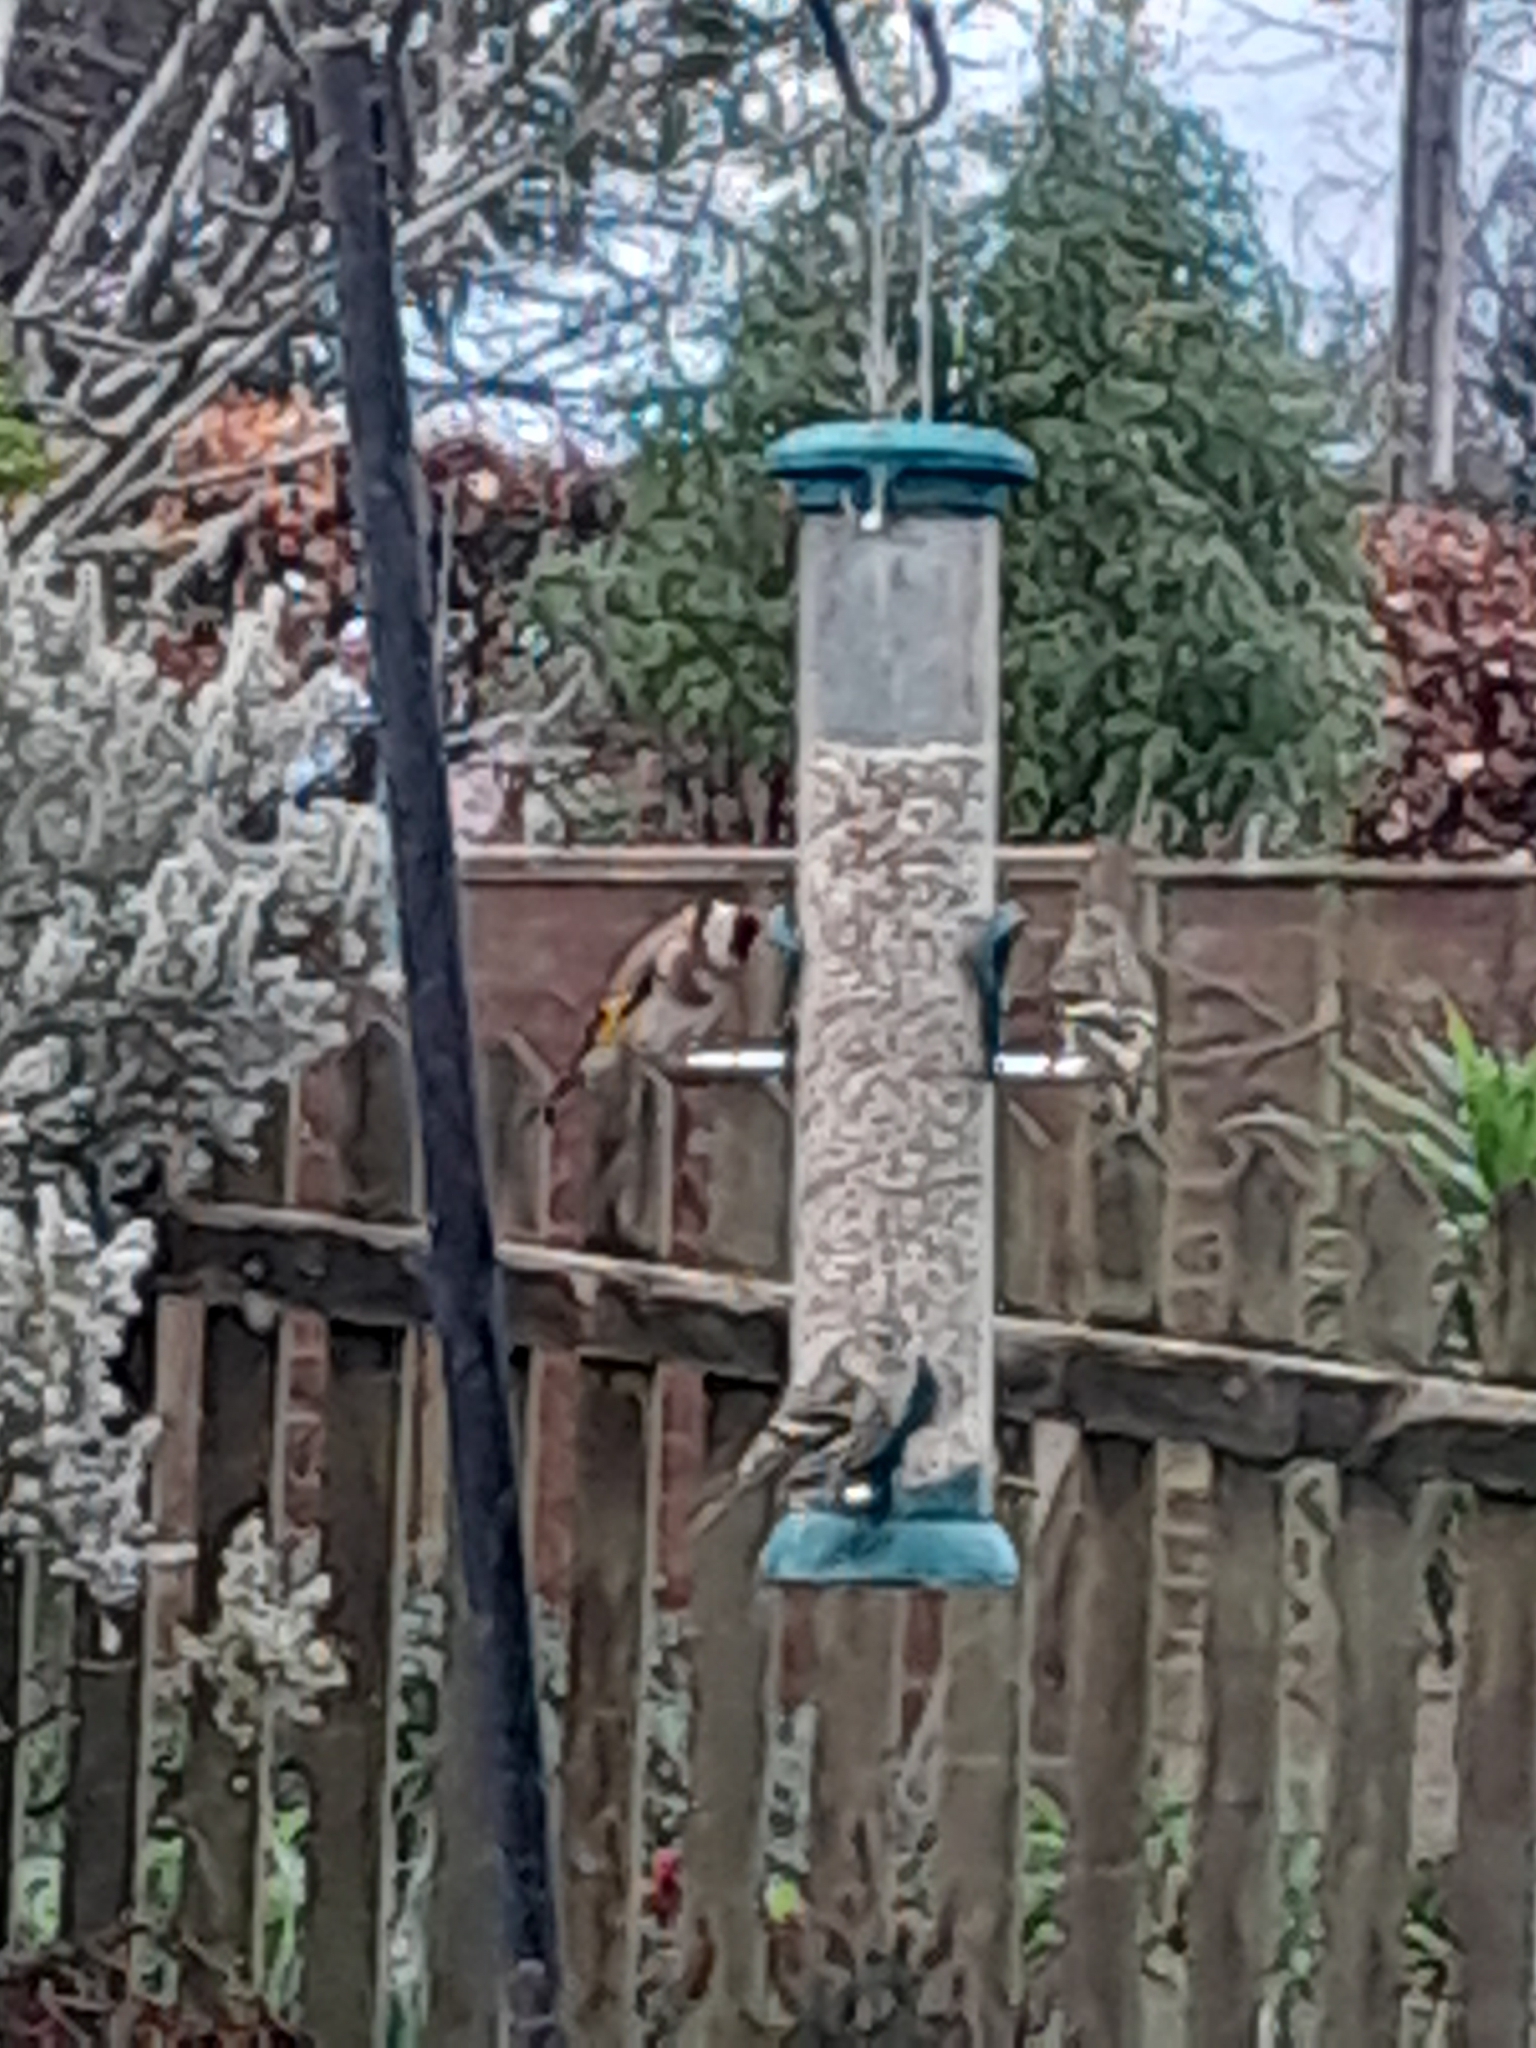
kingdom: Animalia
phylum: Chordata
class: Aves
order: Passeriformes
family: Fringillidae
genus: Carduelis
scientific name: Carduelis carduelis
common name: European goldfinch
